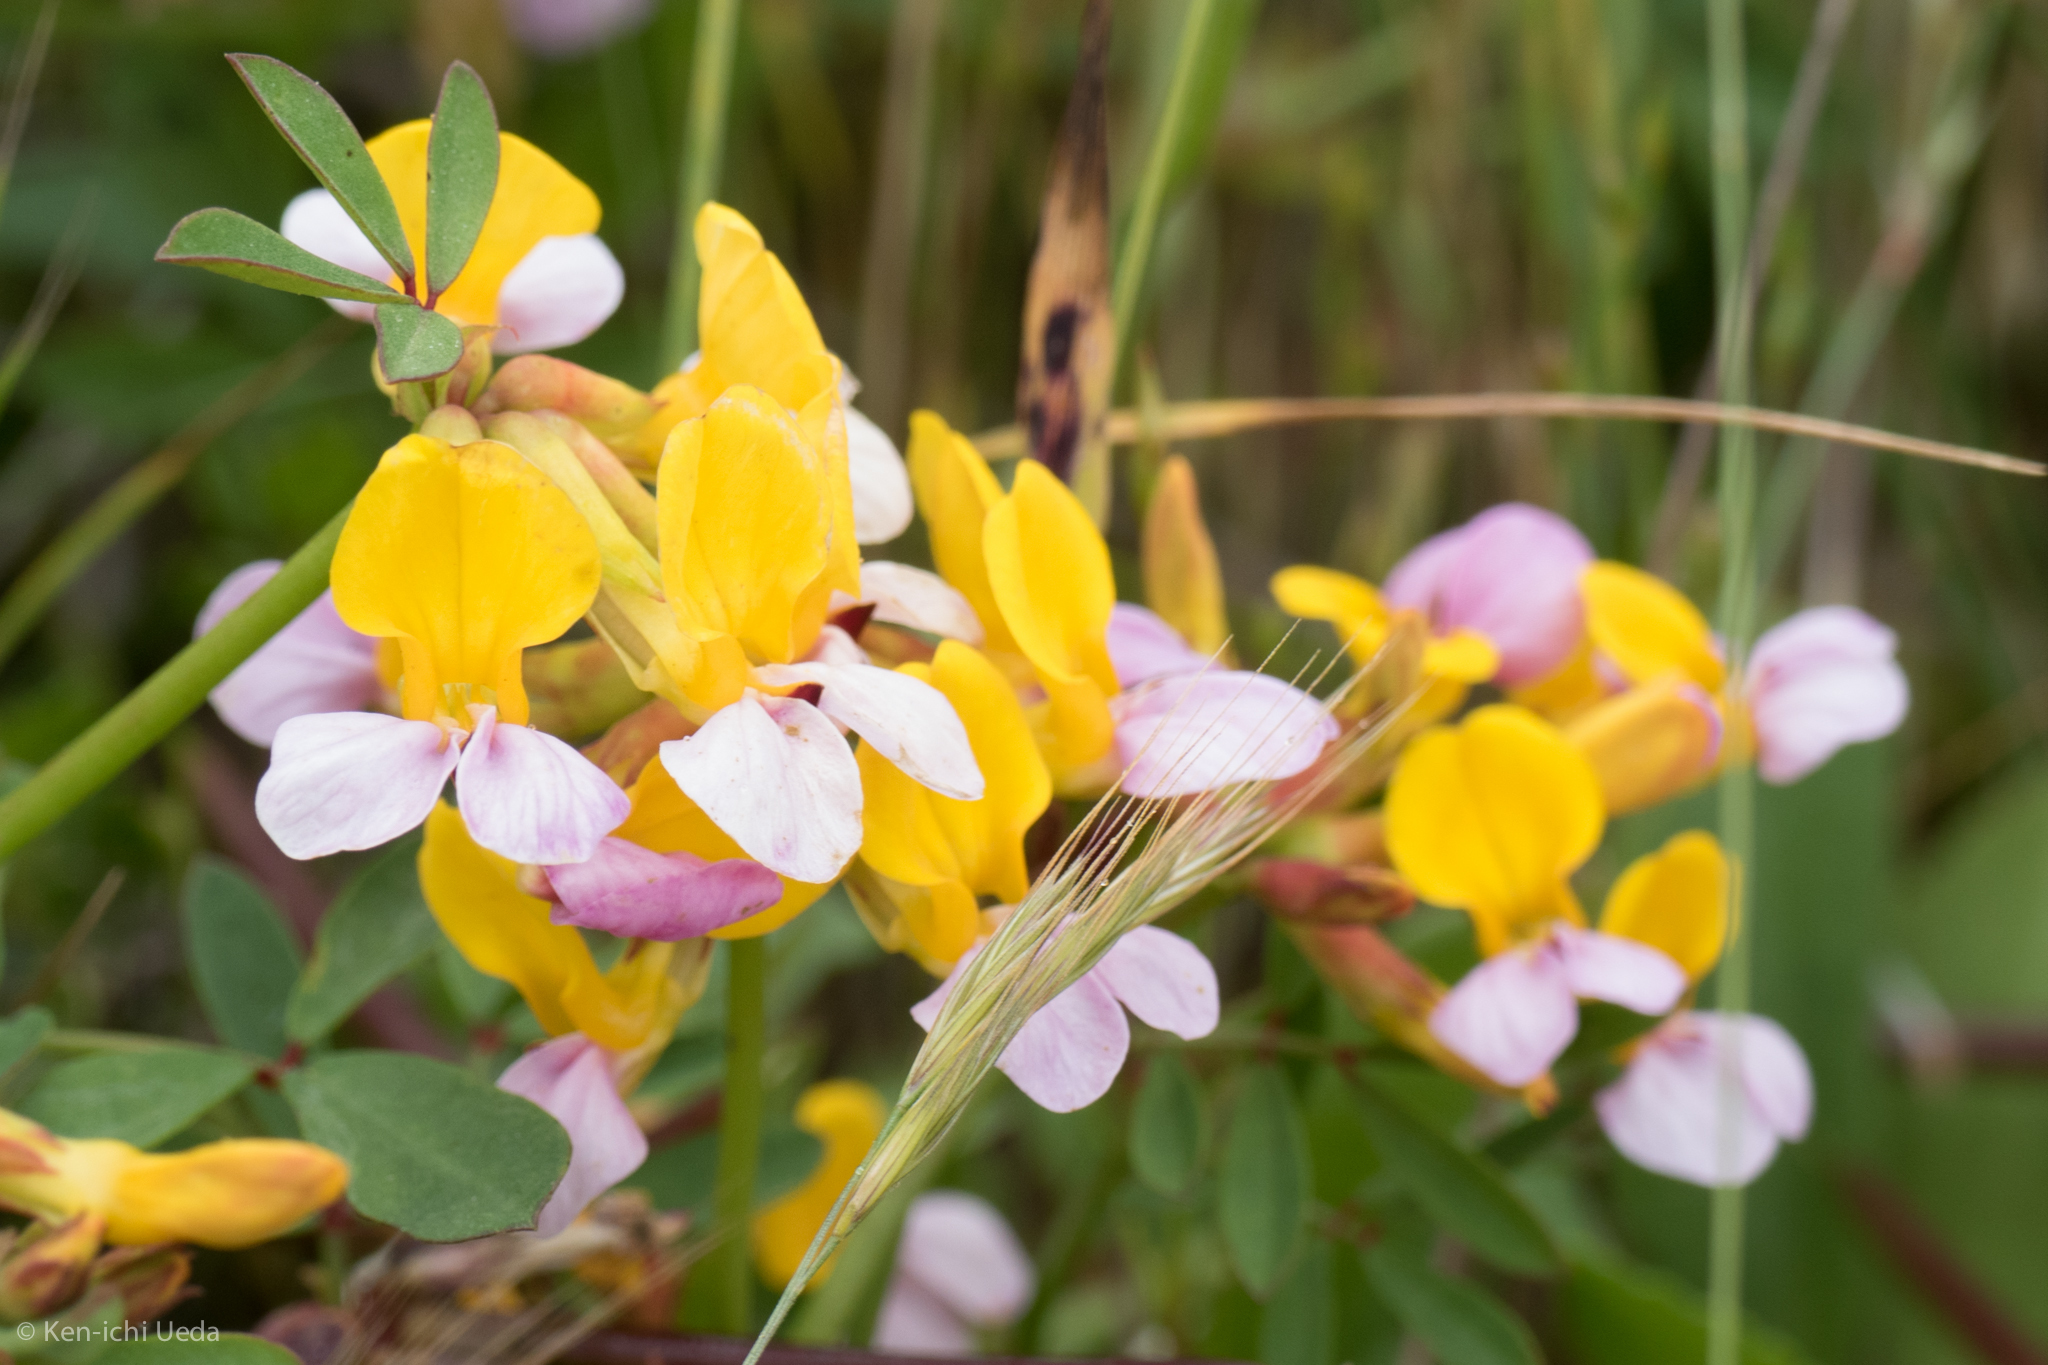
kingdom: Plantae
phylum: Tracheophyta
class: Magnoliopsida
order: Fabales
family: Fabaceae
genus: Hosackia
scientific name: Hosackia gracilis
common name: Seaside bird's-foot lotus
